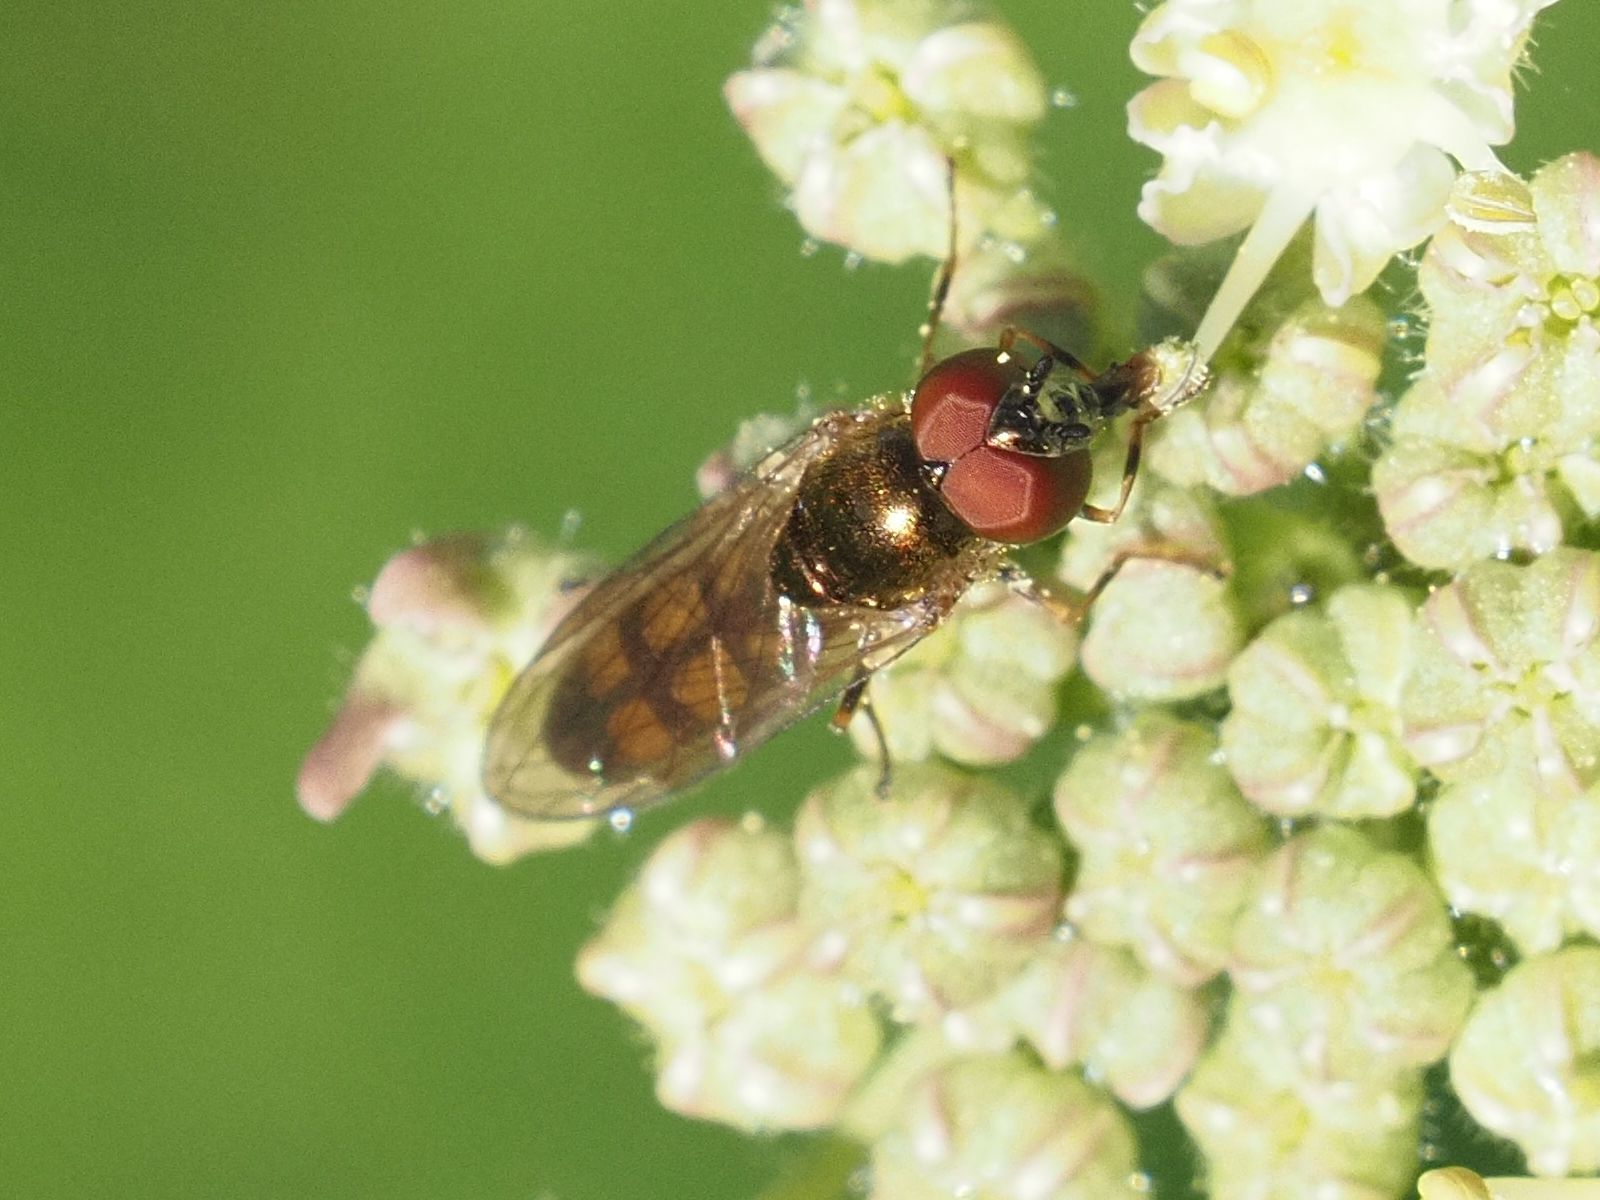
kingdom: Animalia
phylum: Arthropoda
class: Insecta
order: Diptera
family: Syrphidae
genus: Melanostoma
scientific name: Melanostoma mellina
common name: Hover fly
